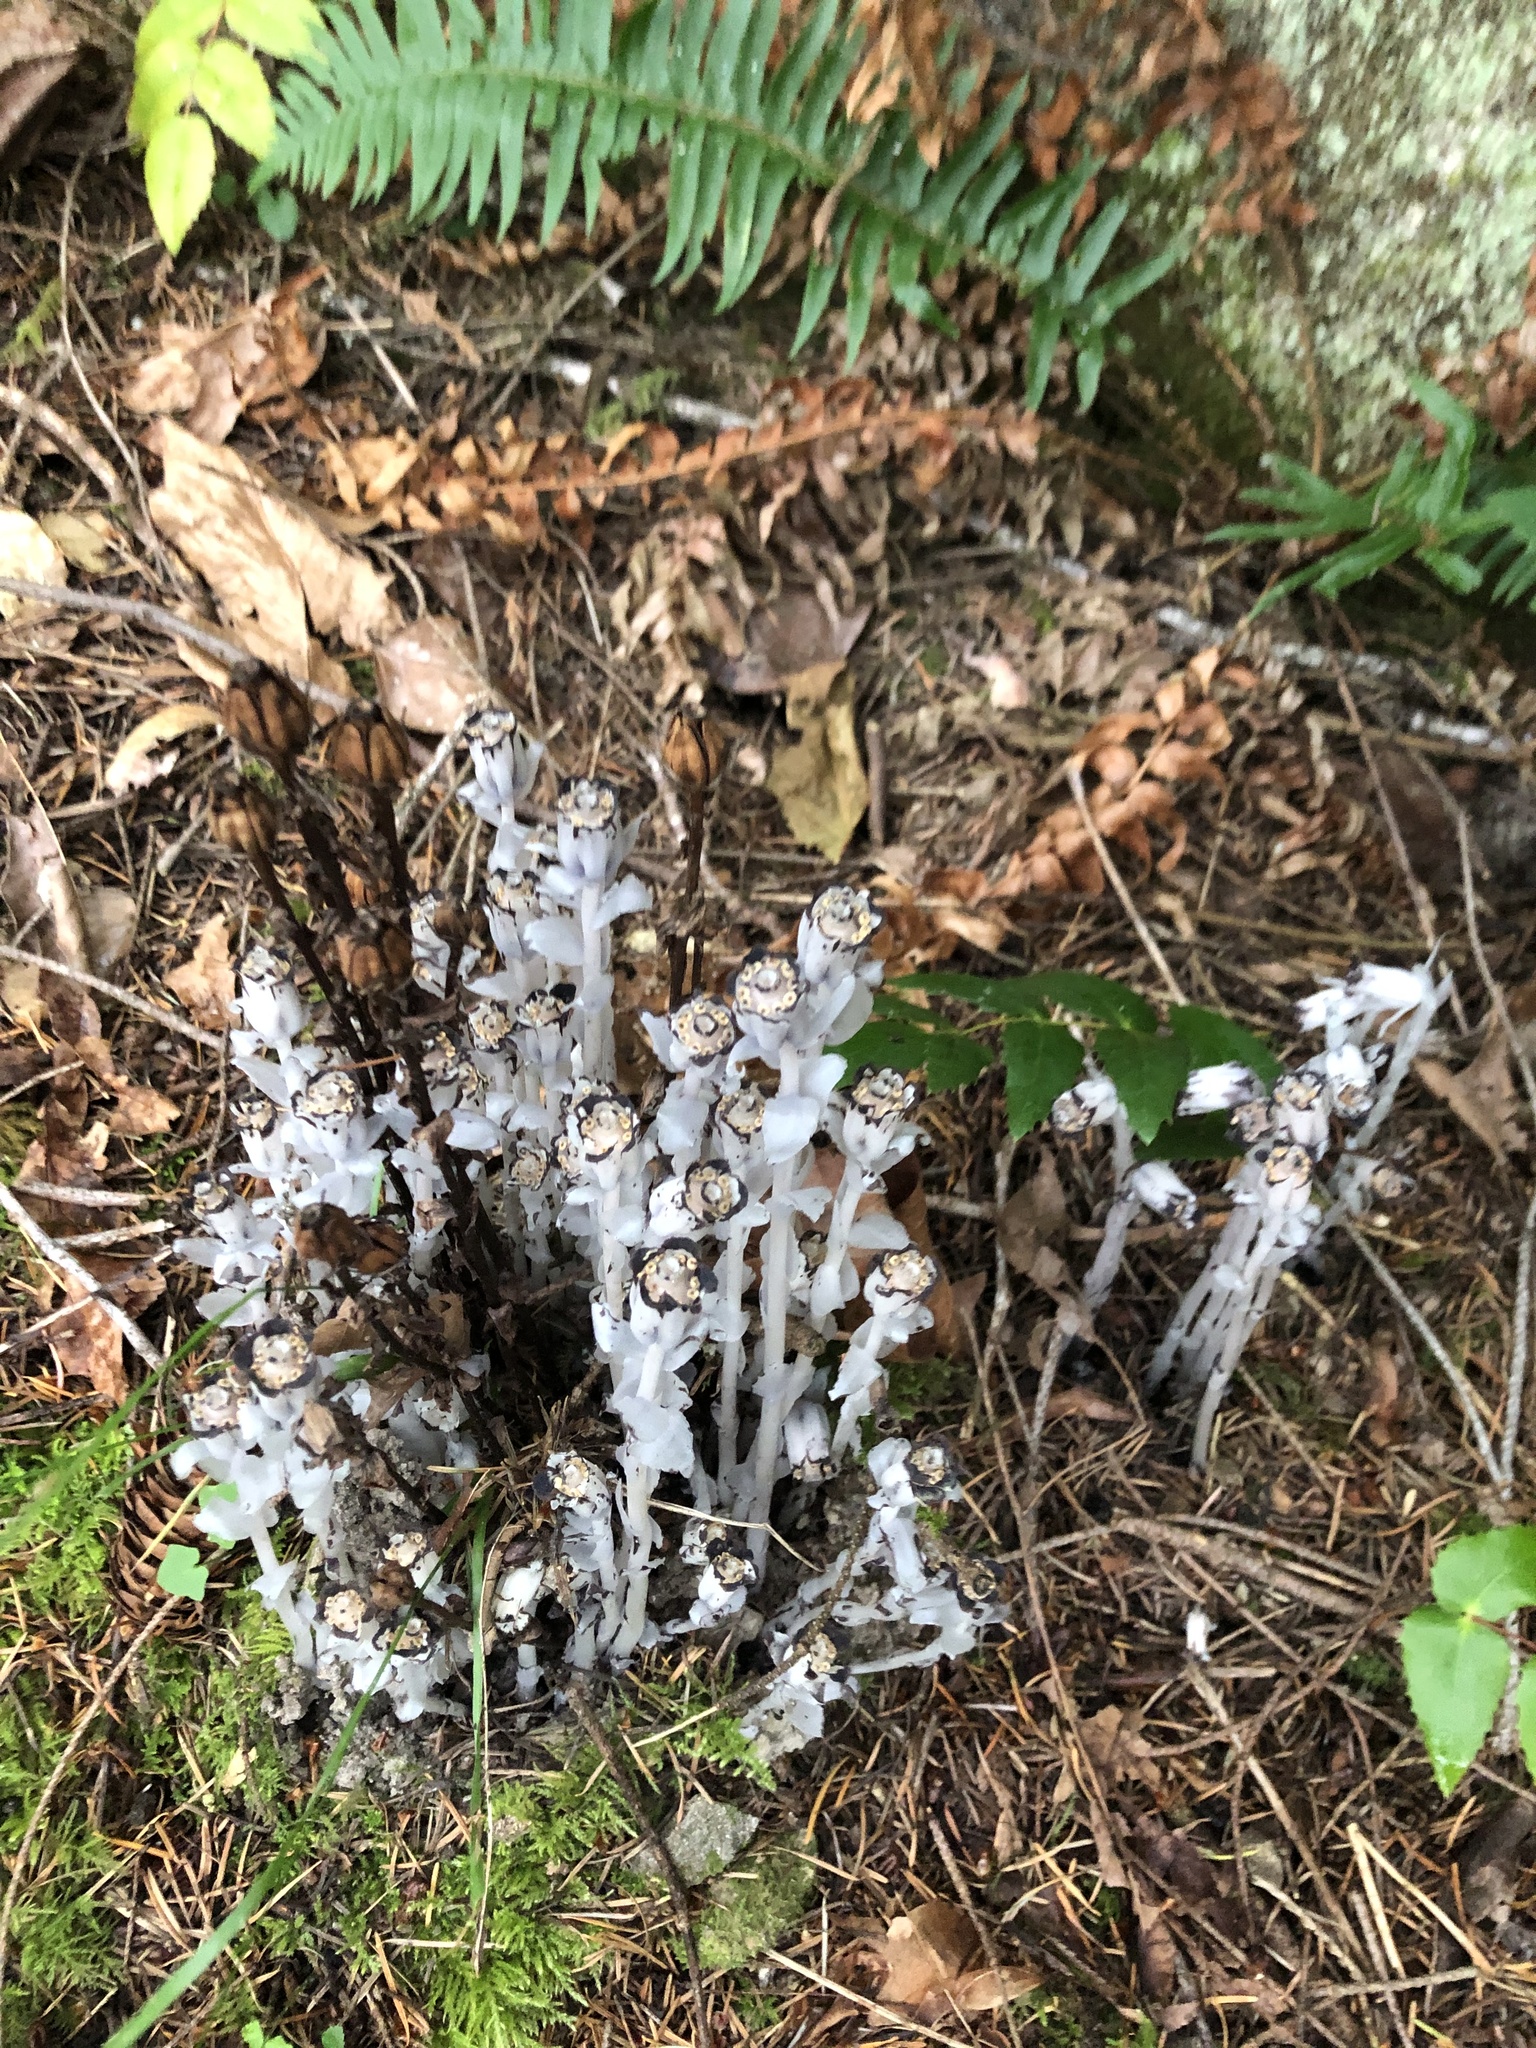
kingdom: Plantae
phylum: Tracheophyta
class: Magnoliopsida
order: Ericales
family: Ericaceae
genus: Monotropa
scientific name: Monotropa uniflora
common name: Convulsion root
